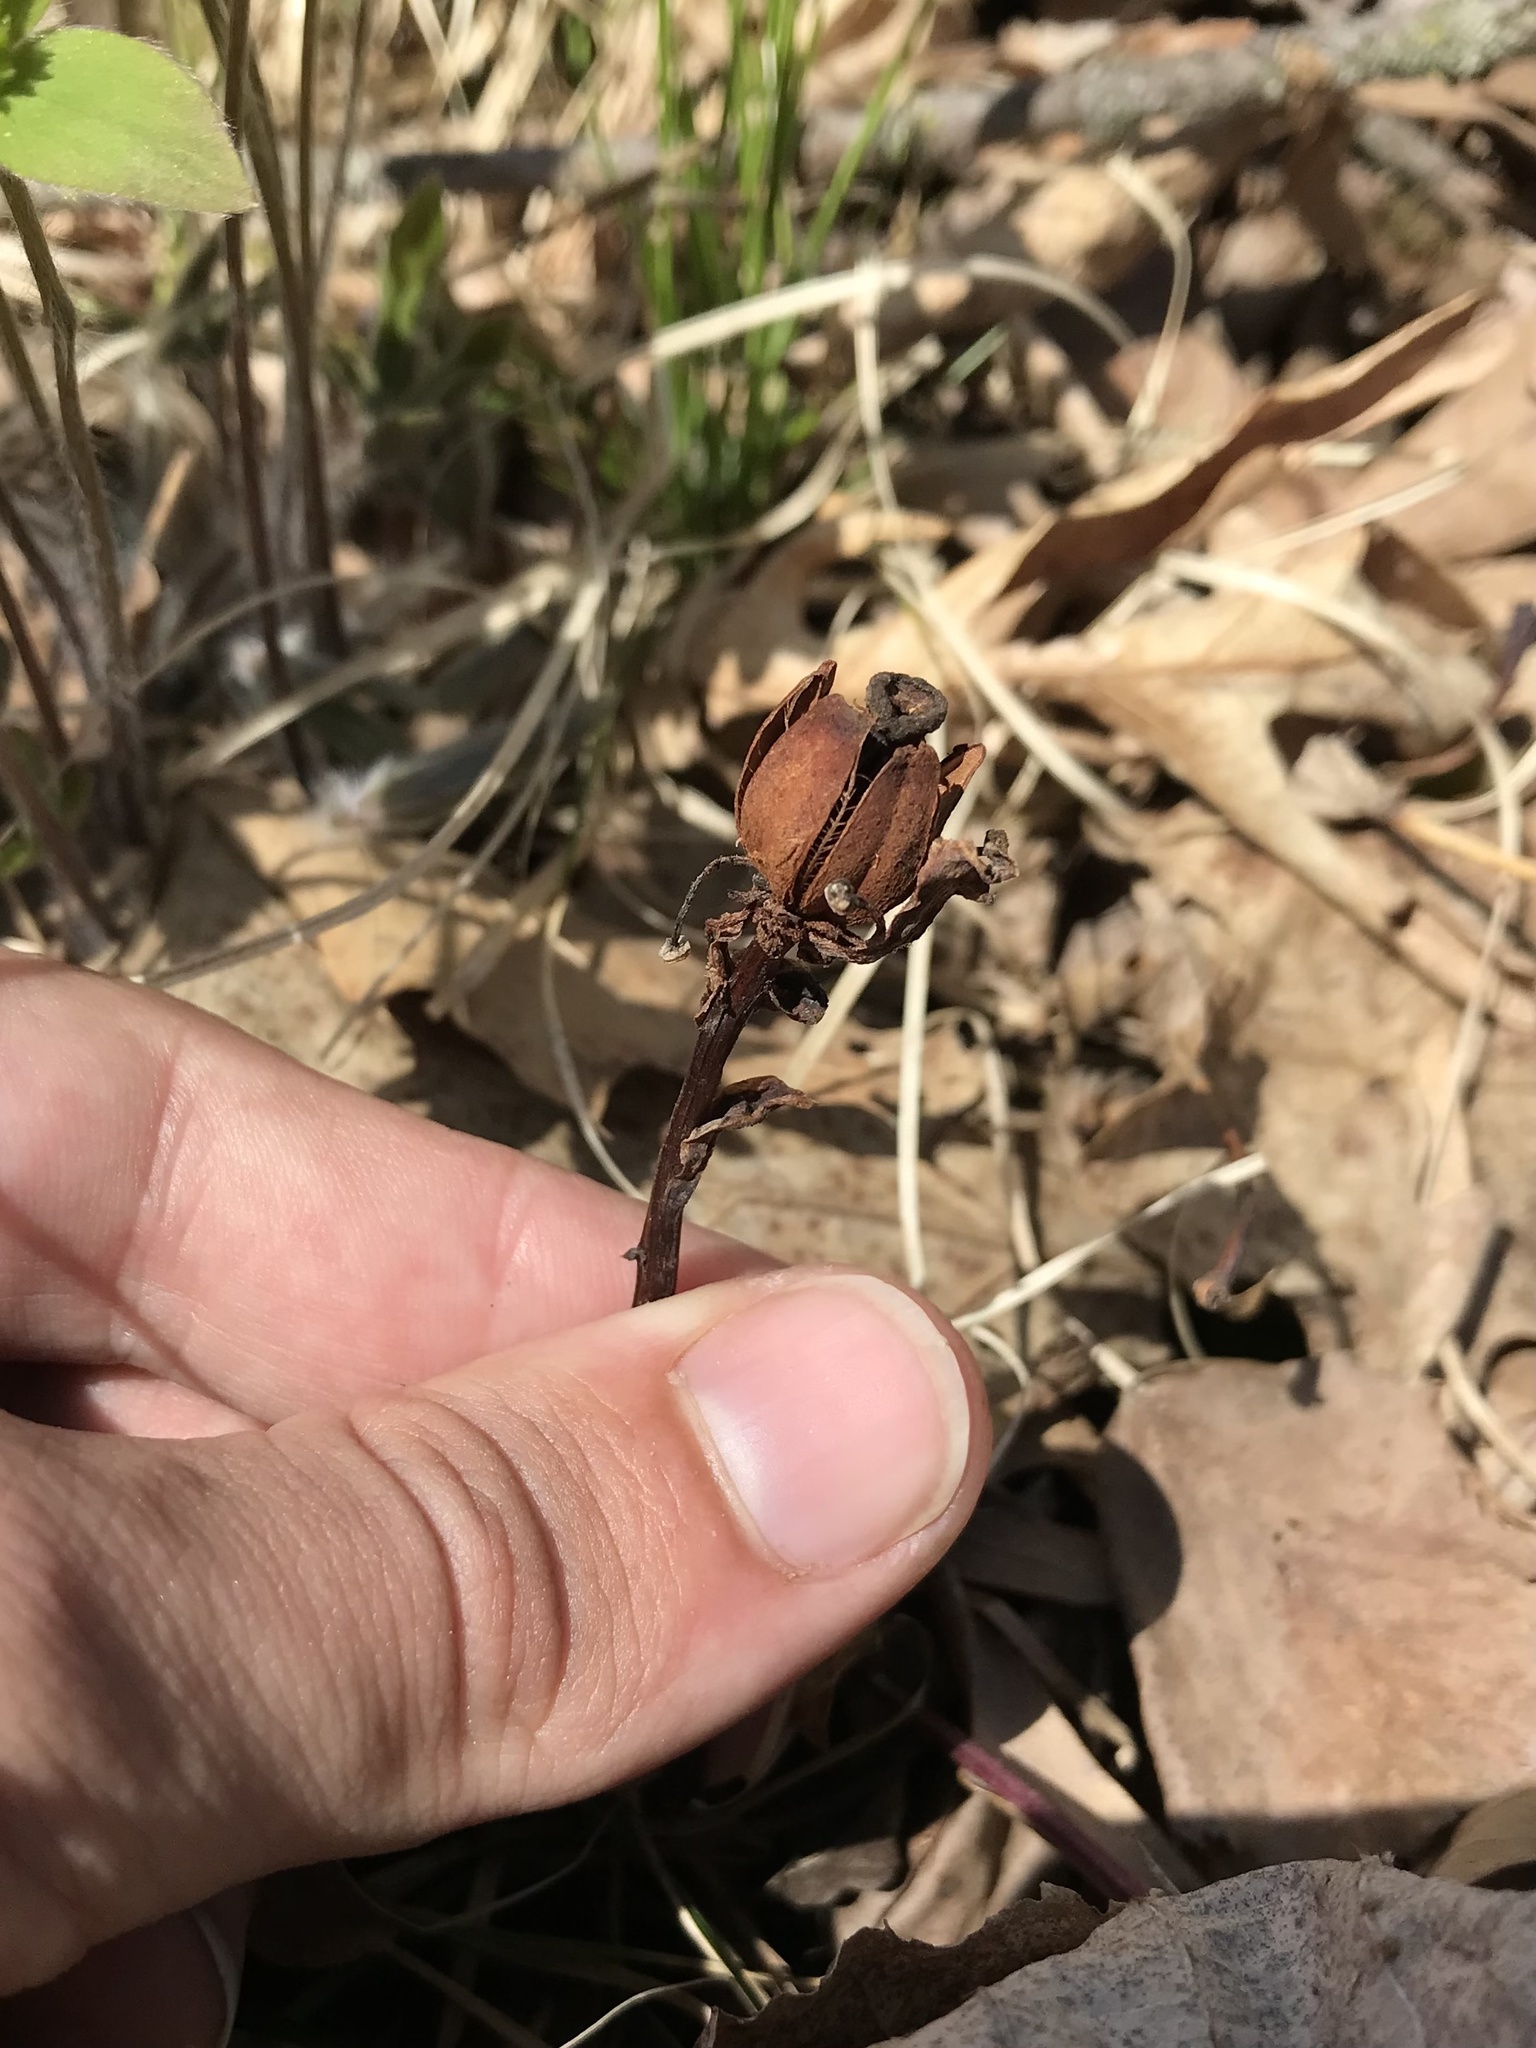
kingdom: Plantae
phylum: Tracheophyta
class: Magnoliopsida
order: Ericales
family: Ericaceae
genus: Monotropa
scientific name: Monotropa uniflora
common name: Convulsion root
